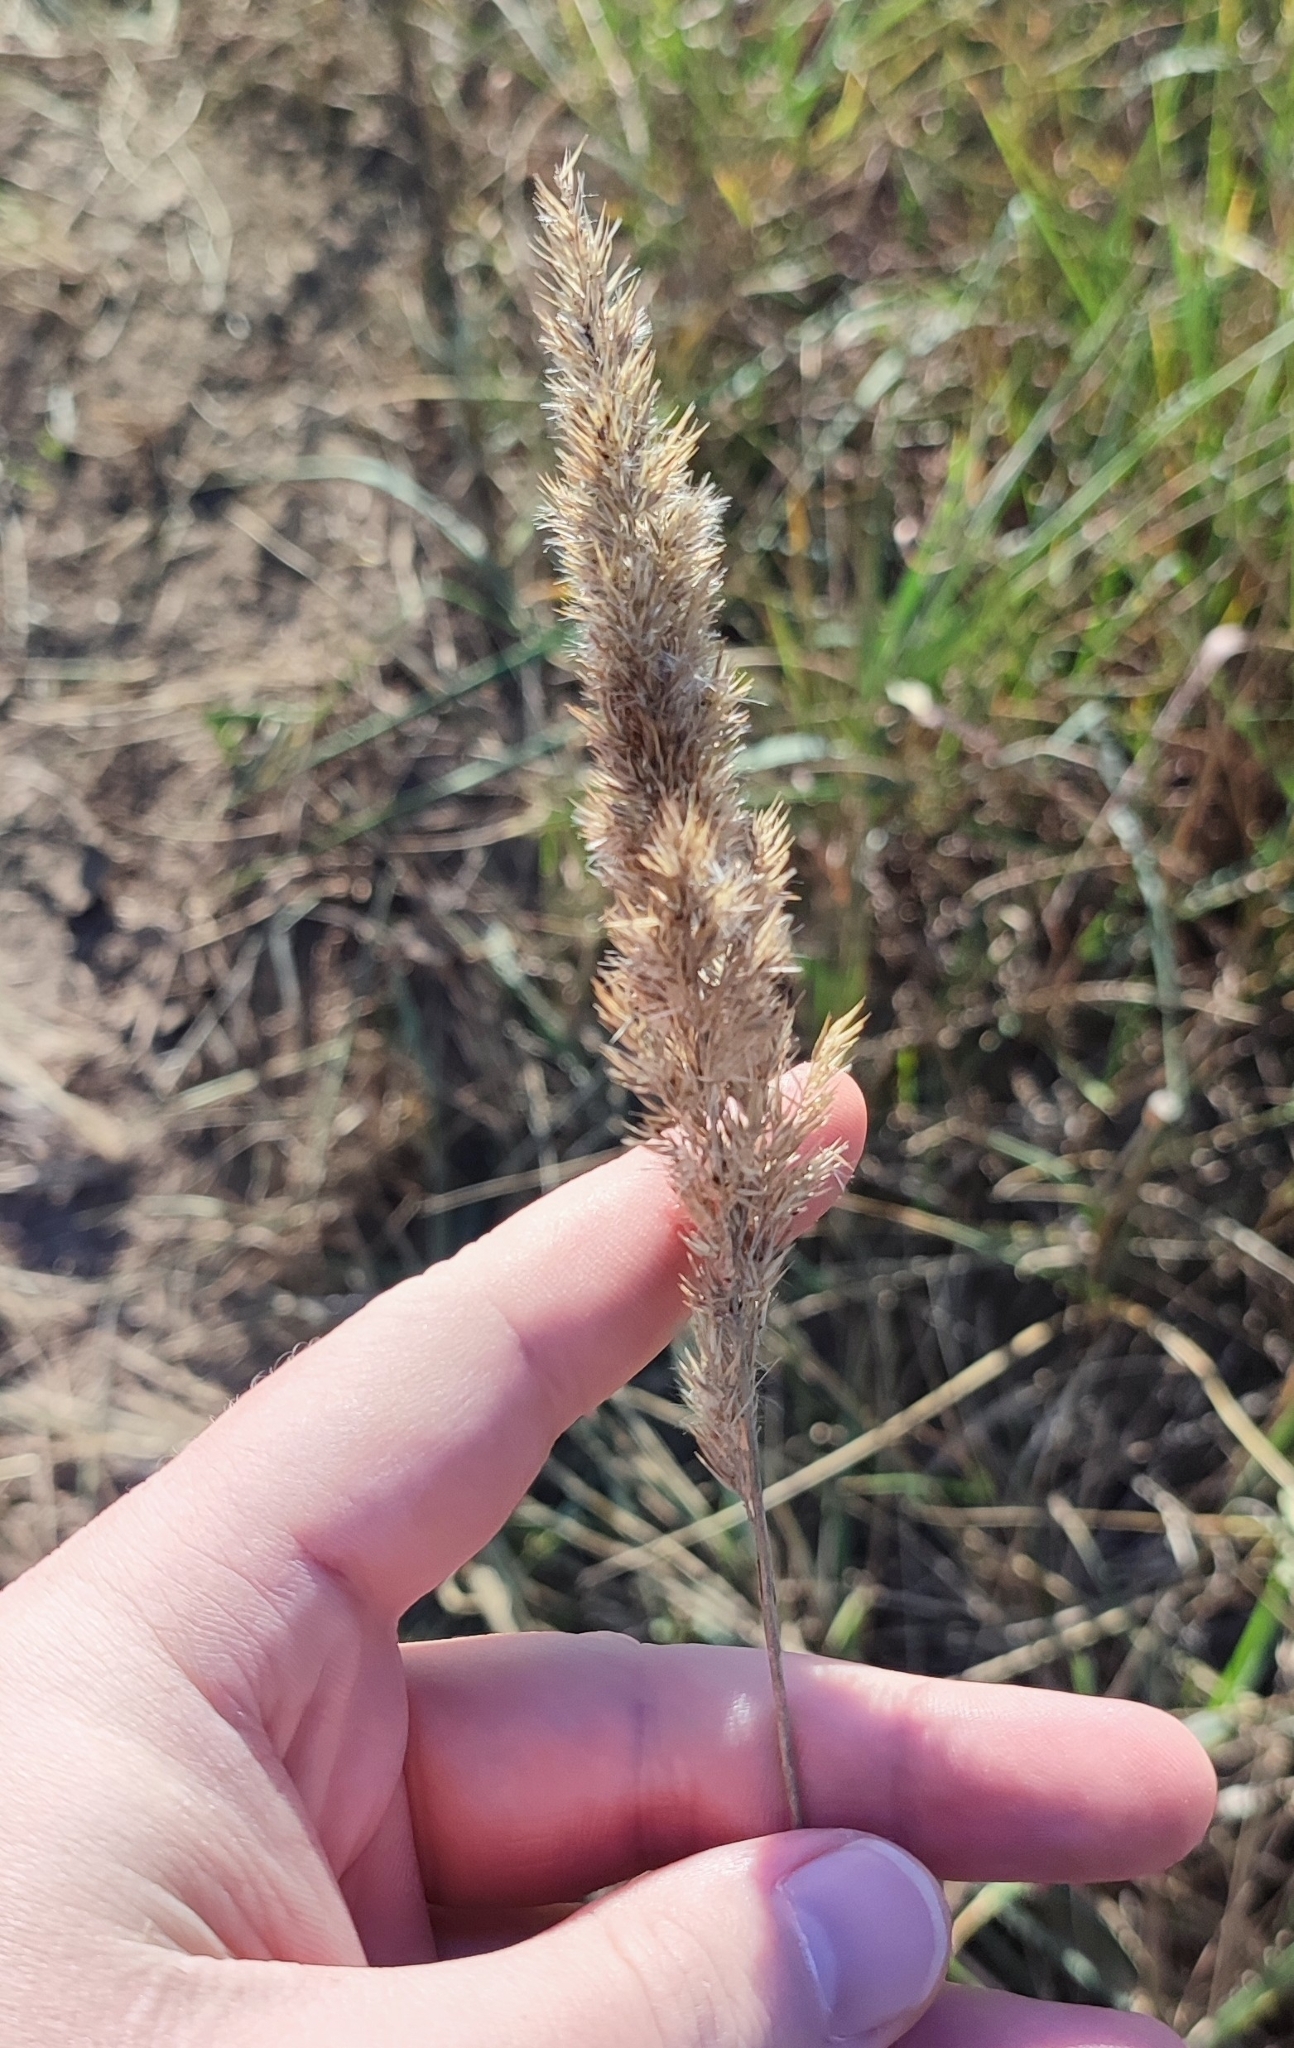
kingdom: Plantae
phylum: Tracheophyta
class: Liliopsida
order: Poales
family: Poaceae
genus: Calamagrostis
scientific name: Calamagrostis epigejos
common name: Wood small-reed
